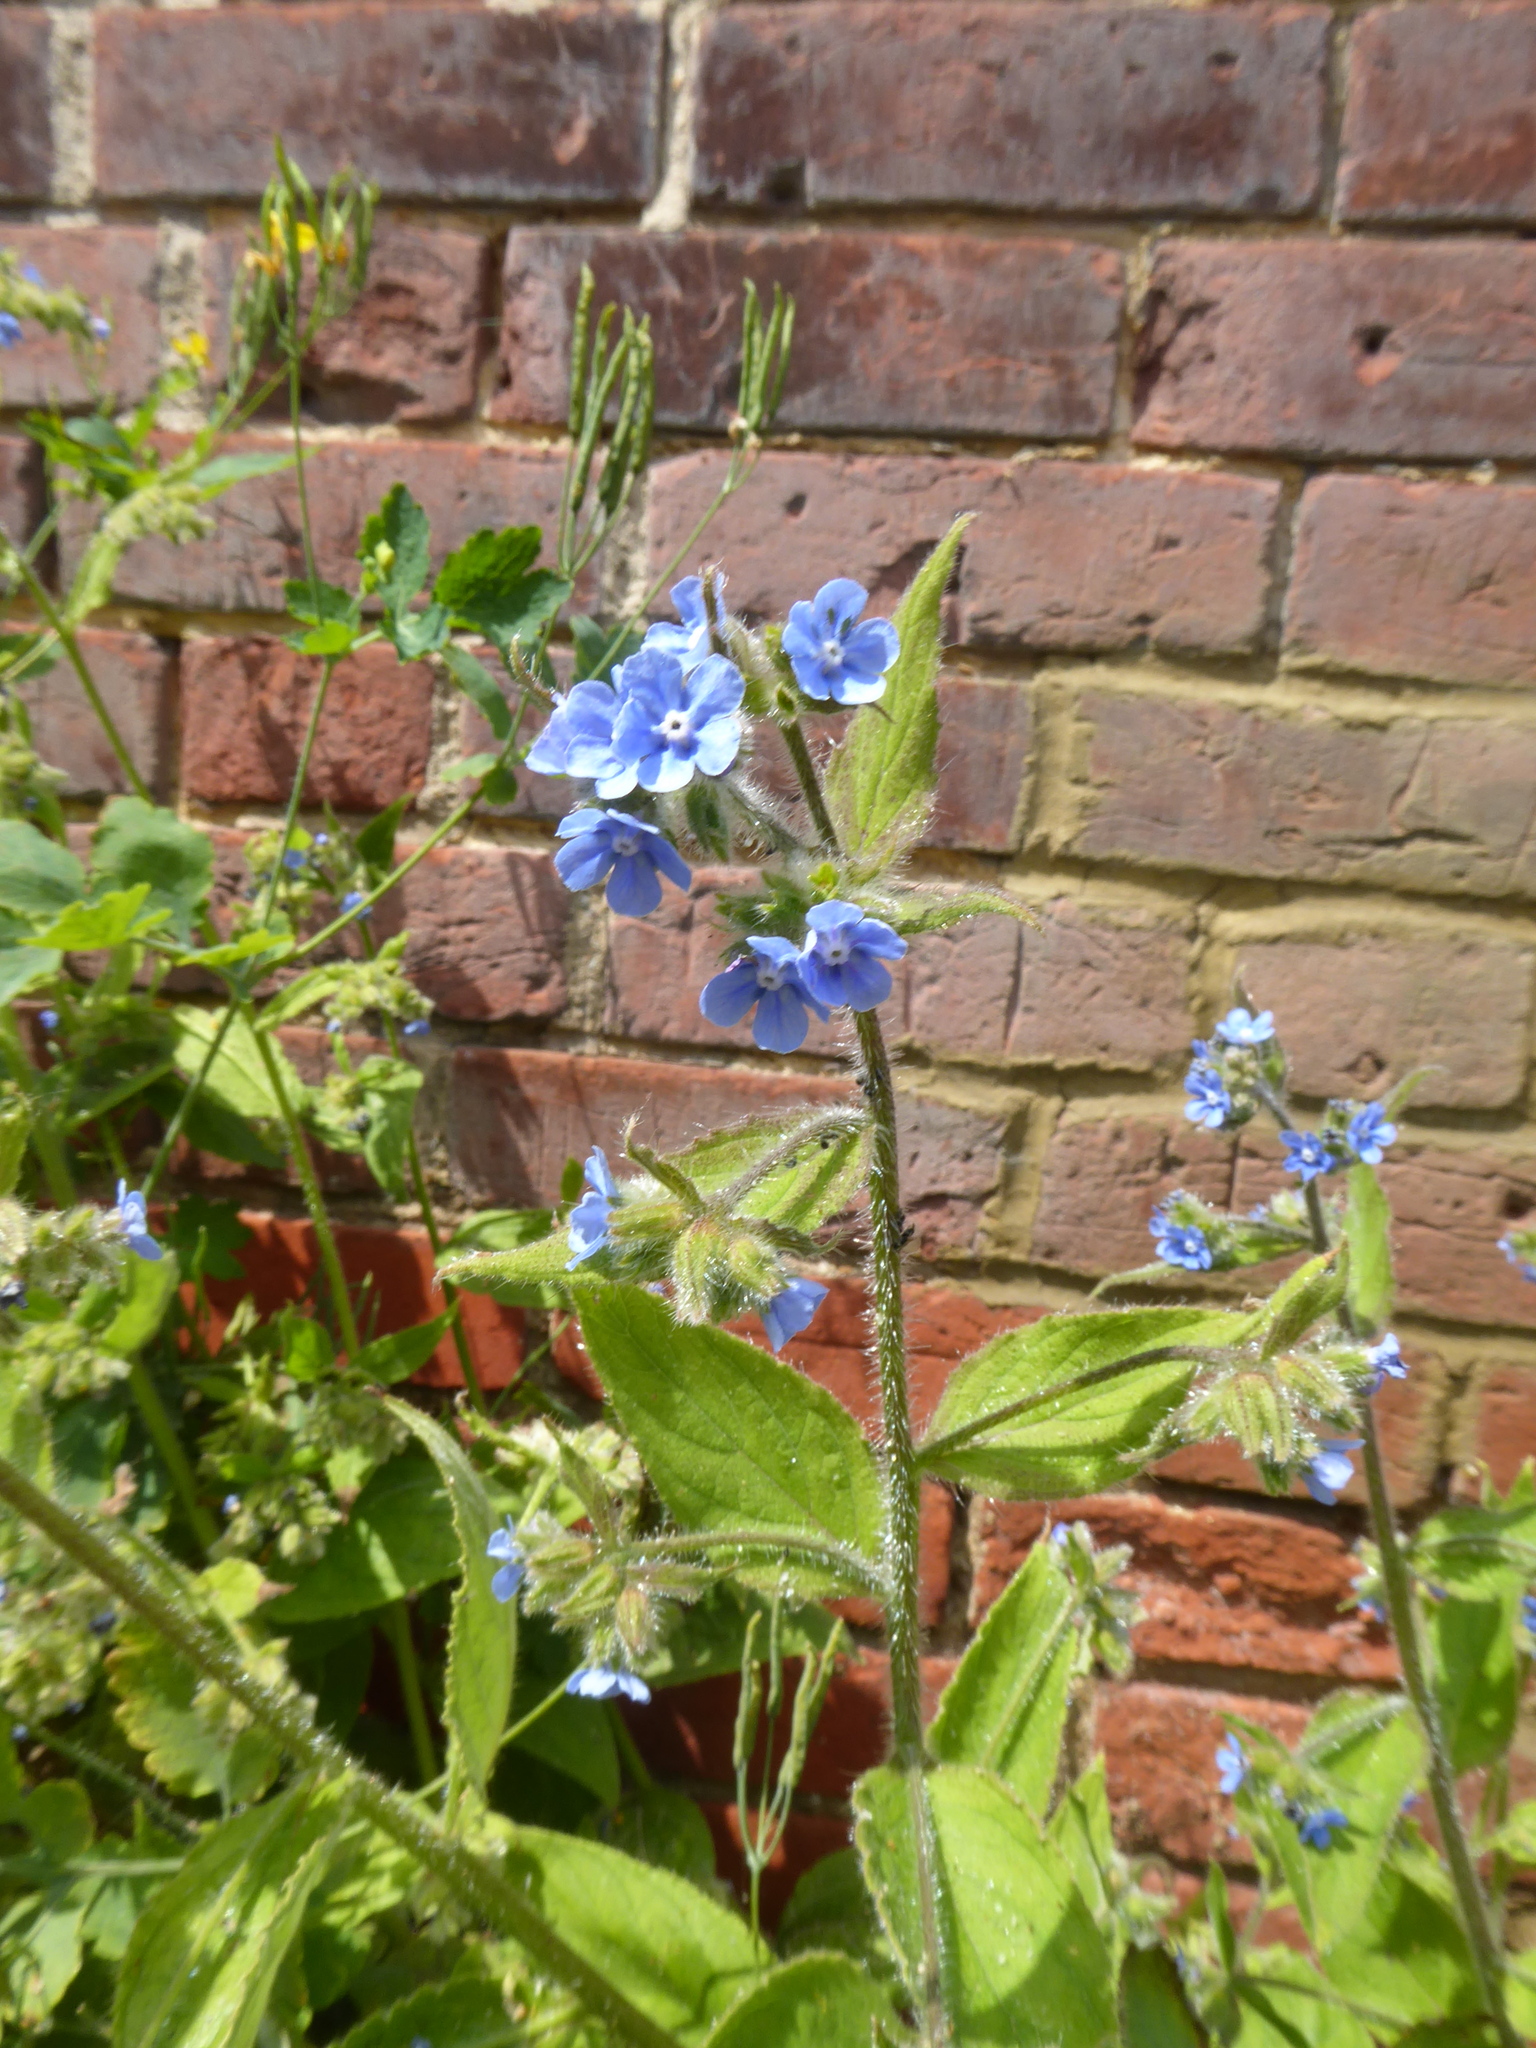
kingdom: Plantae
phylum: Tracheophyta
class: Magnoliopsida
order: Boraginales
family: Boraginaceae
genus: Pentaglottis
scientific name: Pentaglottis sempervirens
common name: Green alkanet
